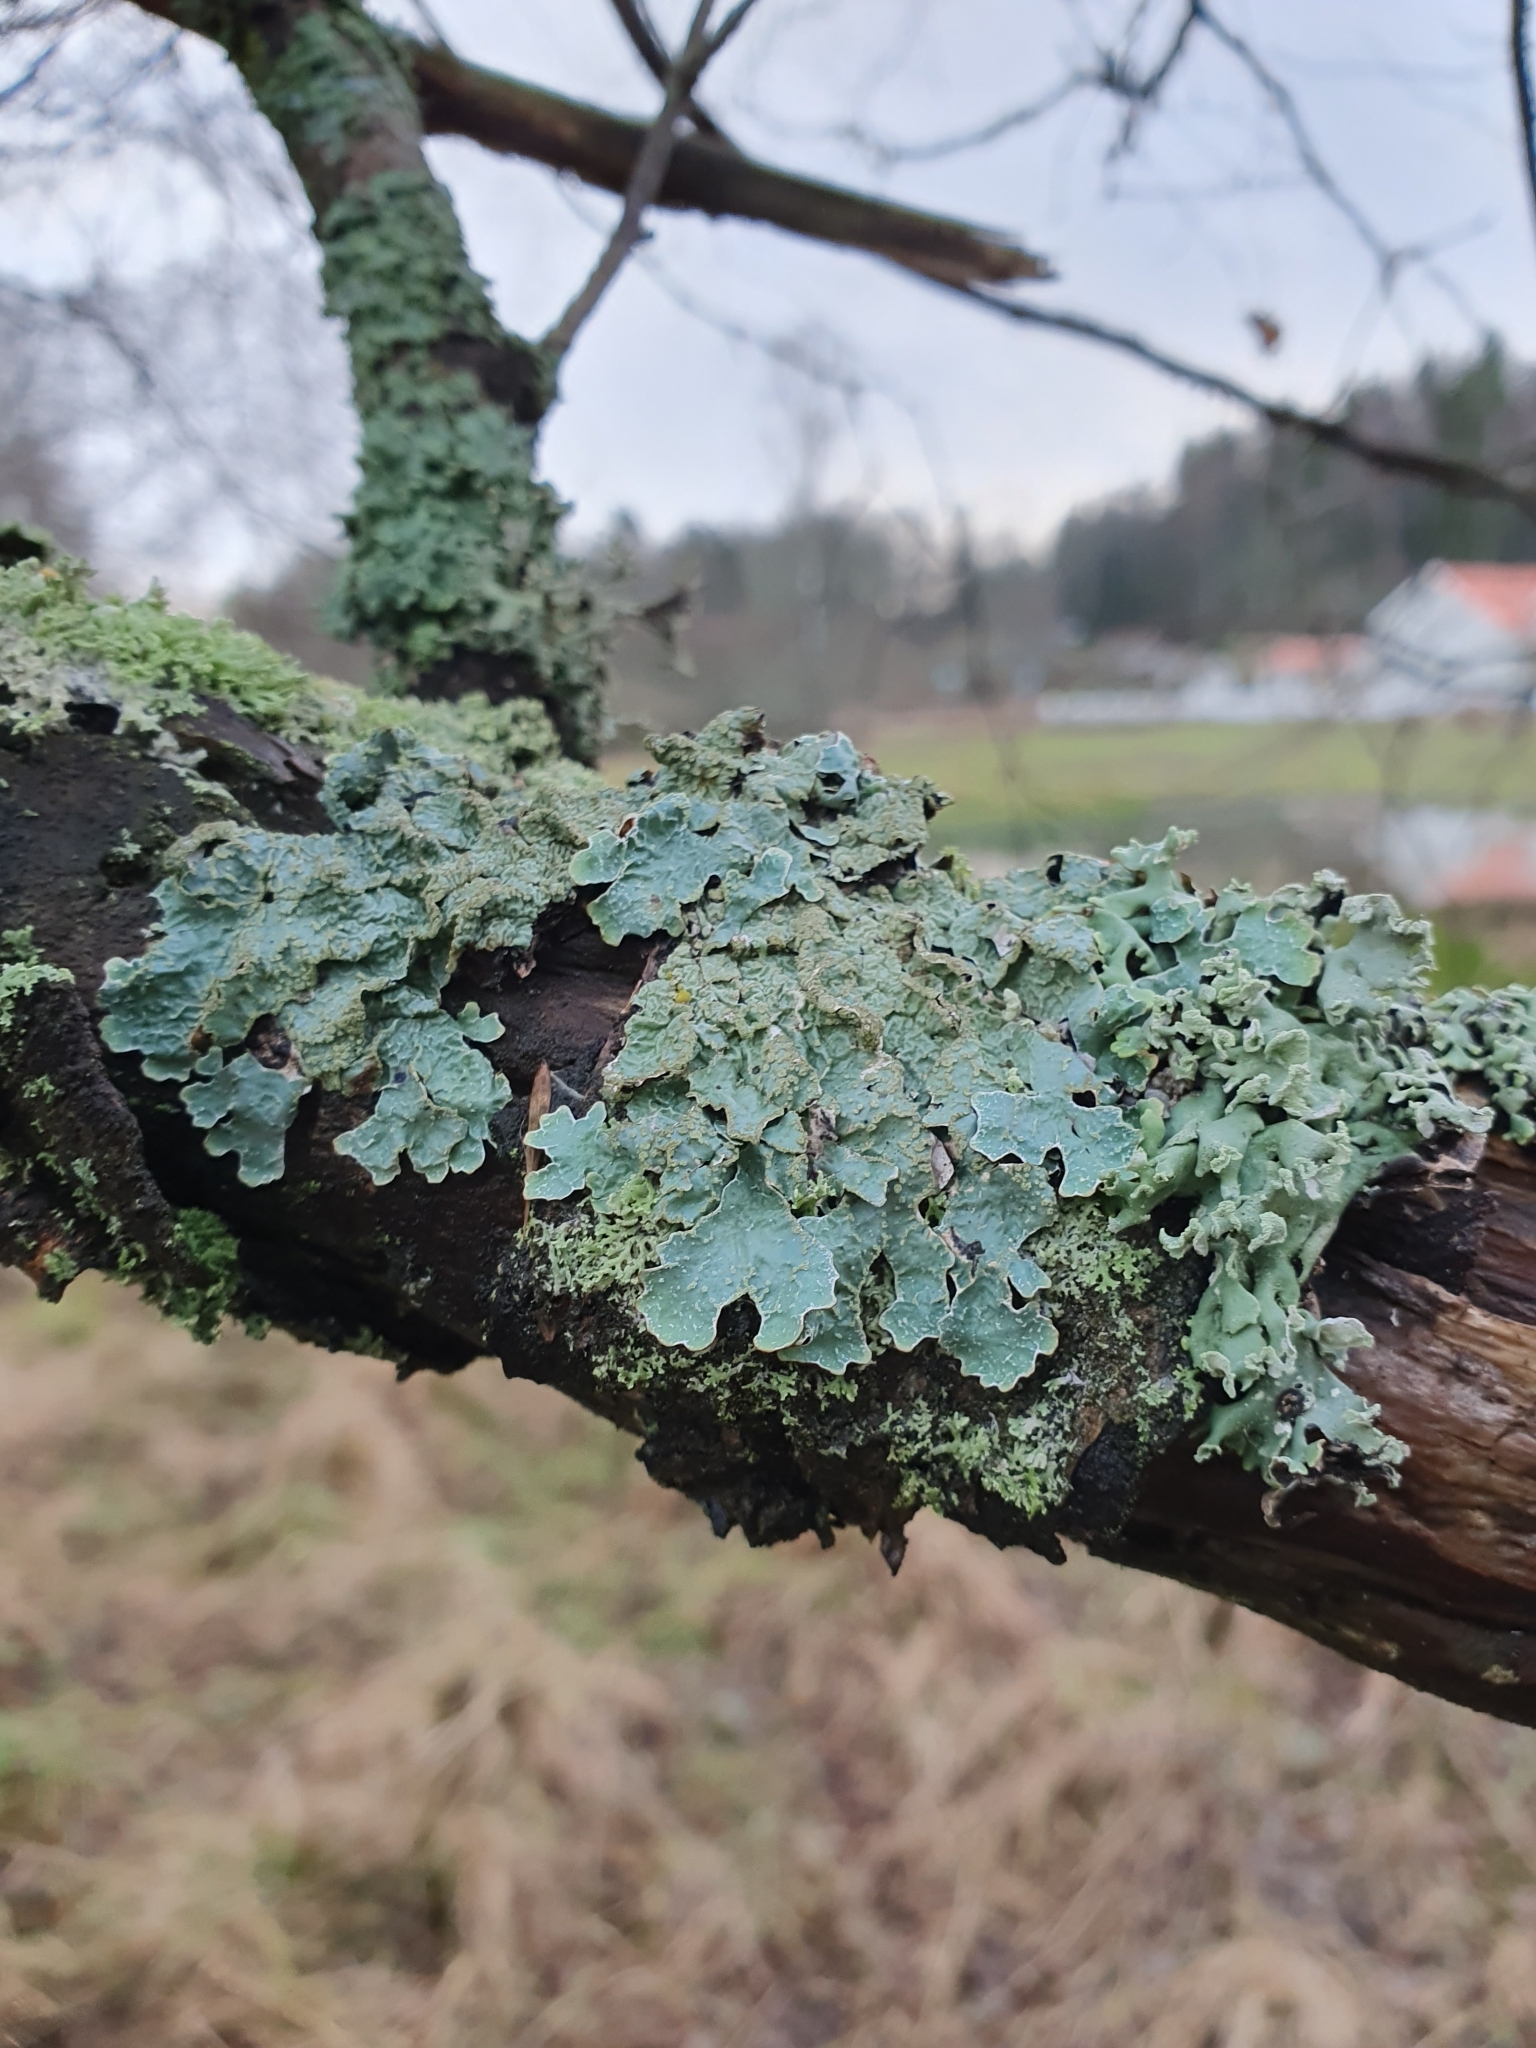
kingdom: Fungi
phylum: Ascomycota
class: Lecanoromycetes
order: Lecanorales
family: Parmeliaceae
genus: Parmelia
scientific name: Parmelia sulcata
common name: Netted shield lichen
